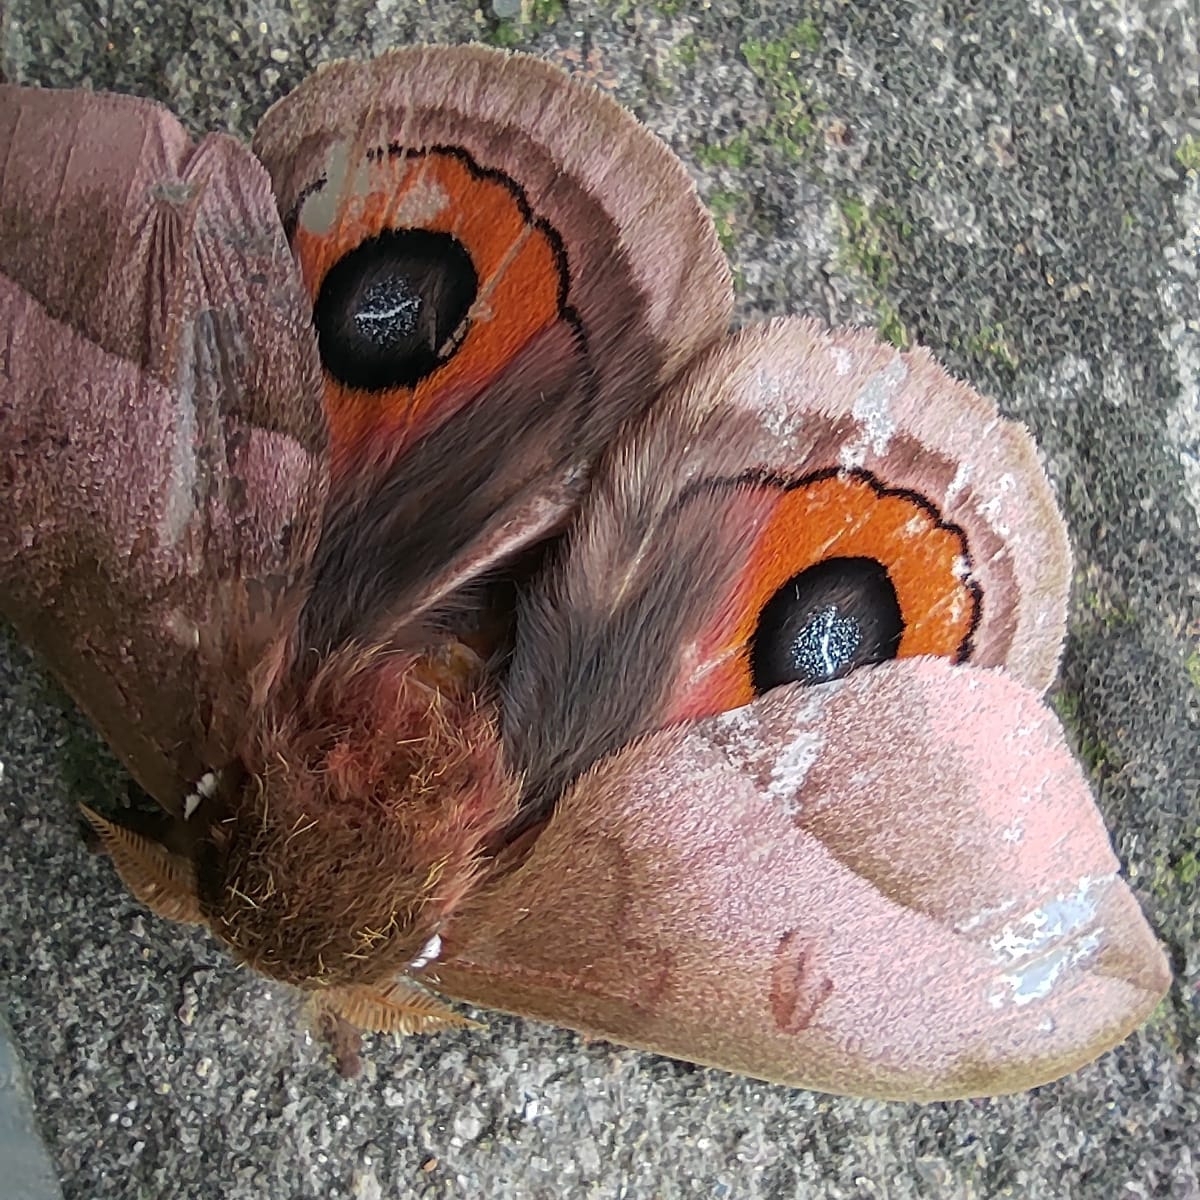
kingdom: Animalia
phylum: Arthropoda
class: Insecta
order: Lepidoptera
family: Saturniidae
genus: Automeris
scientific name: Automeris naranja
